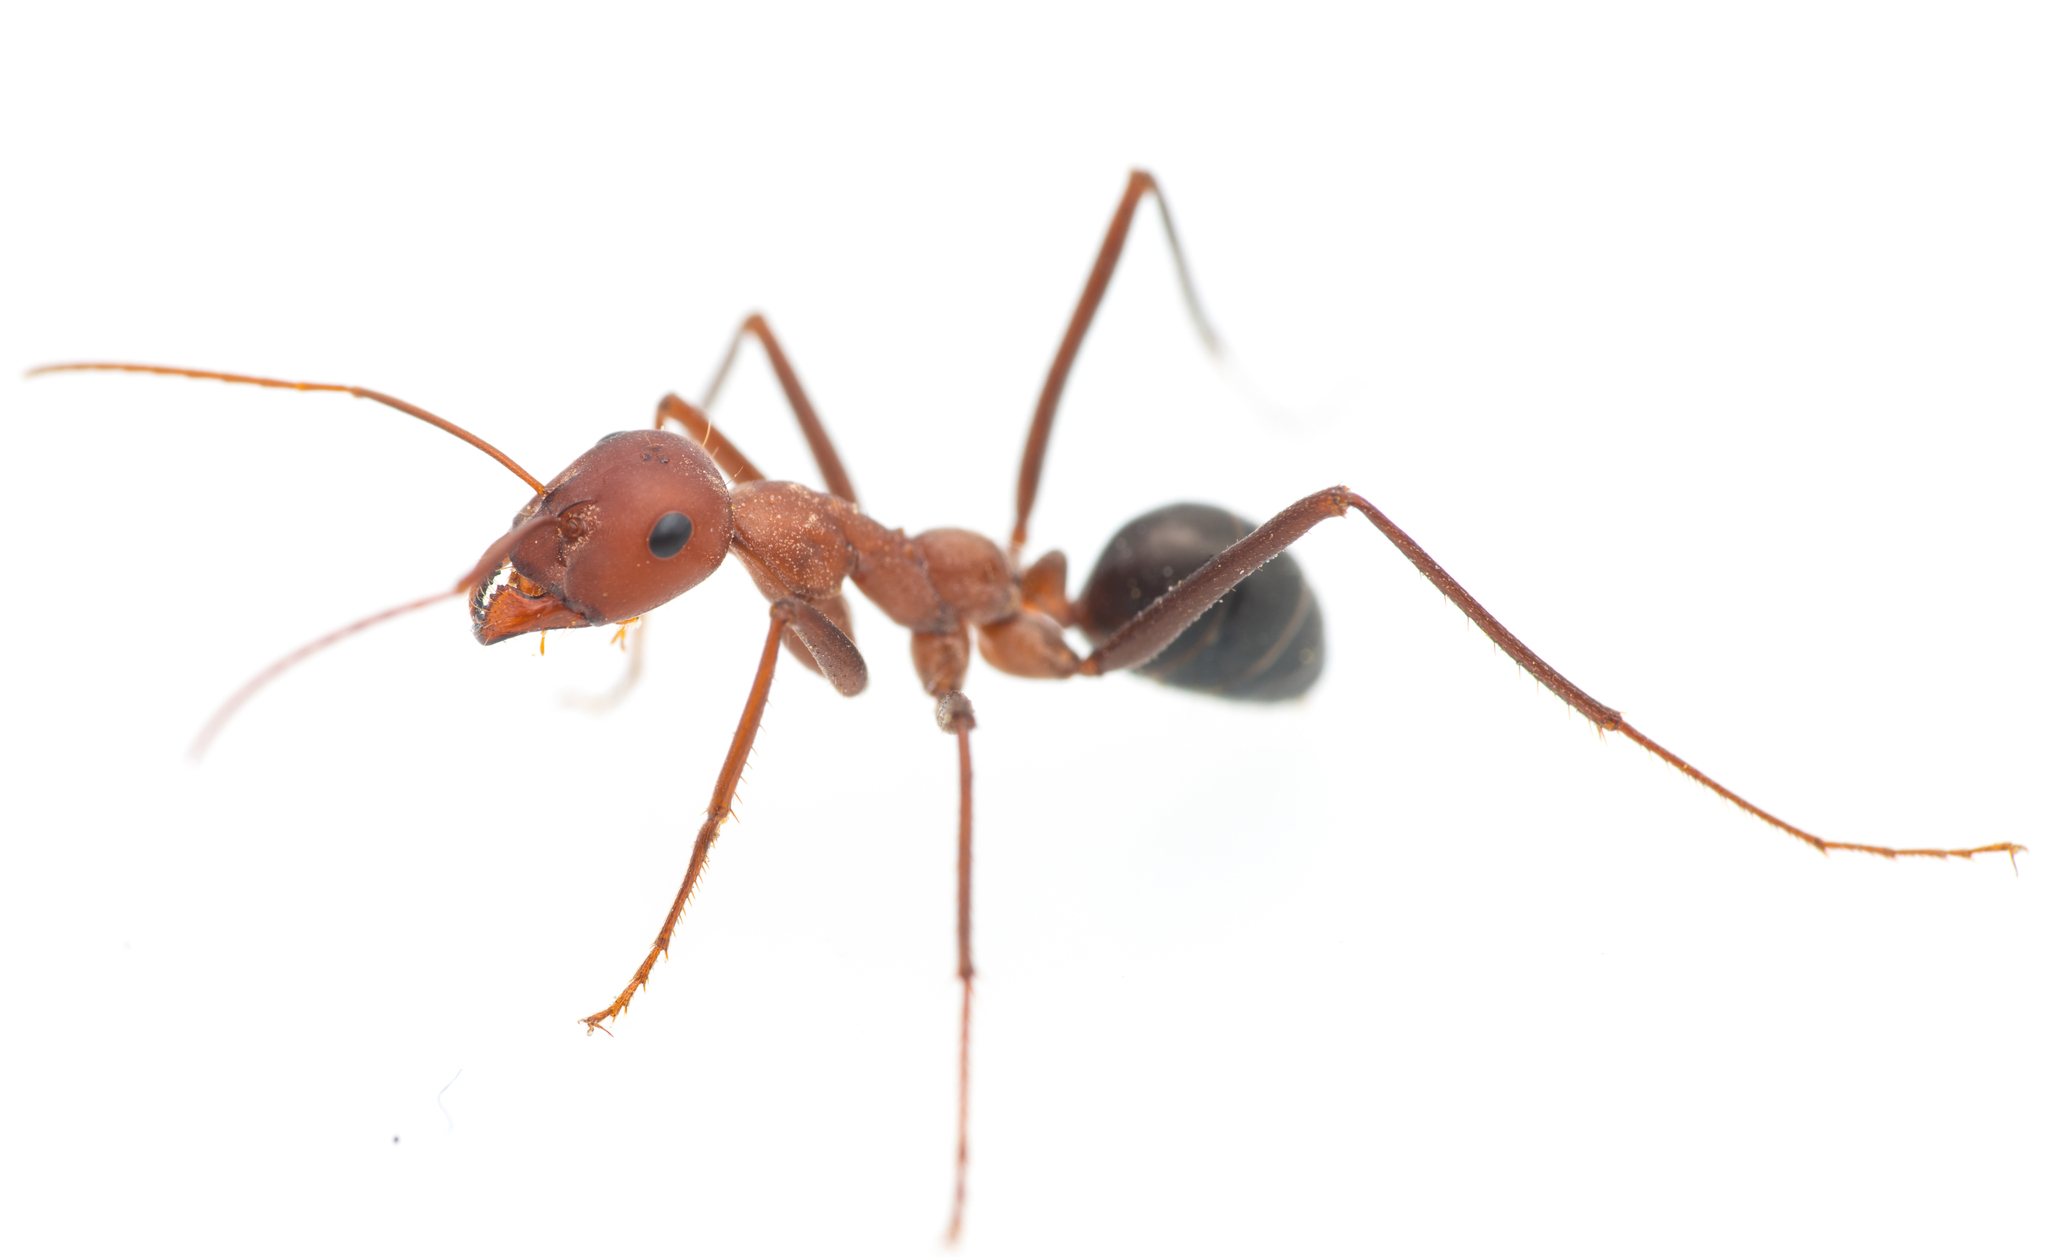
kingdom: Animalia
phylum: Arthropoda
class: Insecta
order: Hymenoptera
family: Formicidae
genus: Cataglyphis
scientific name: Cataglyphis velox
